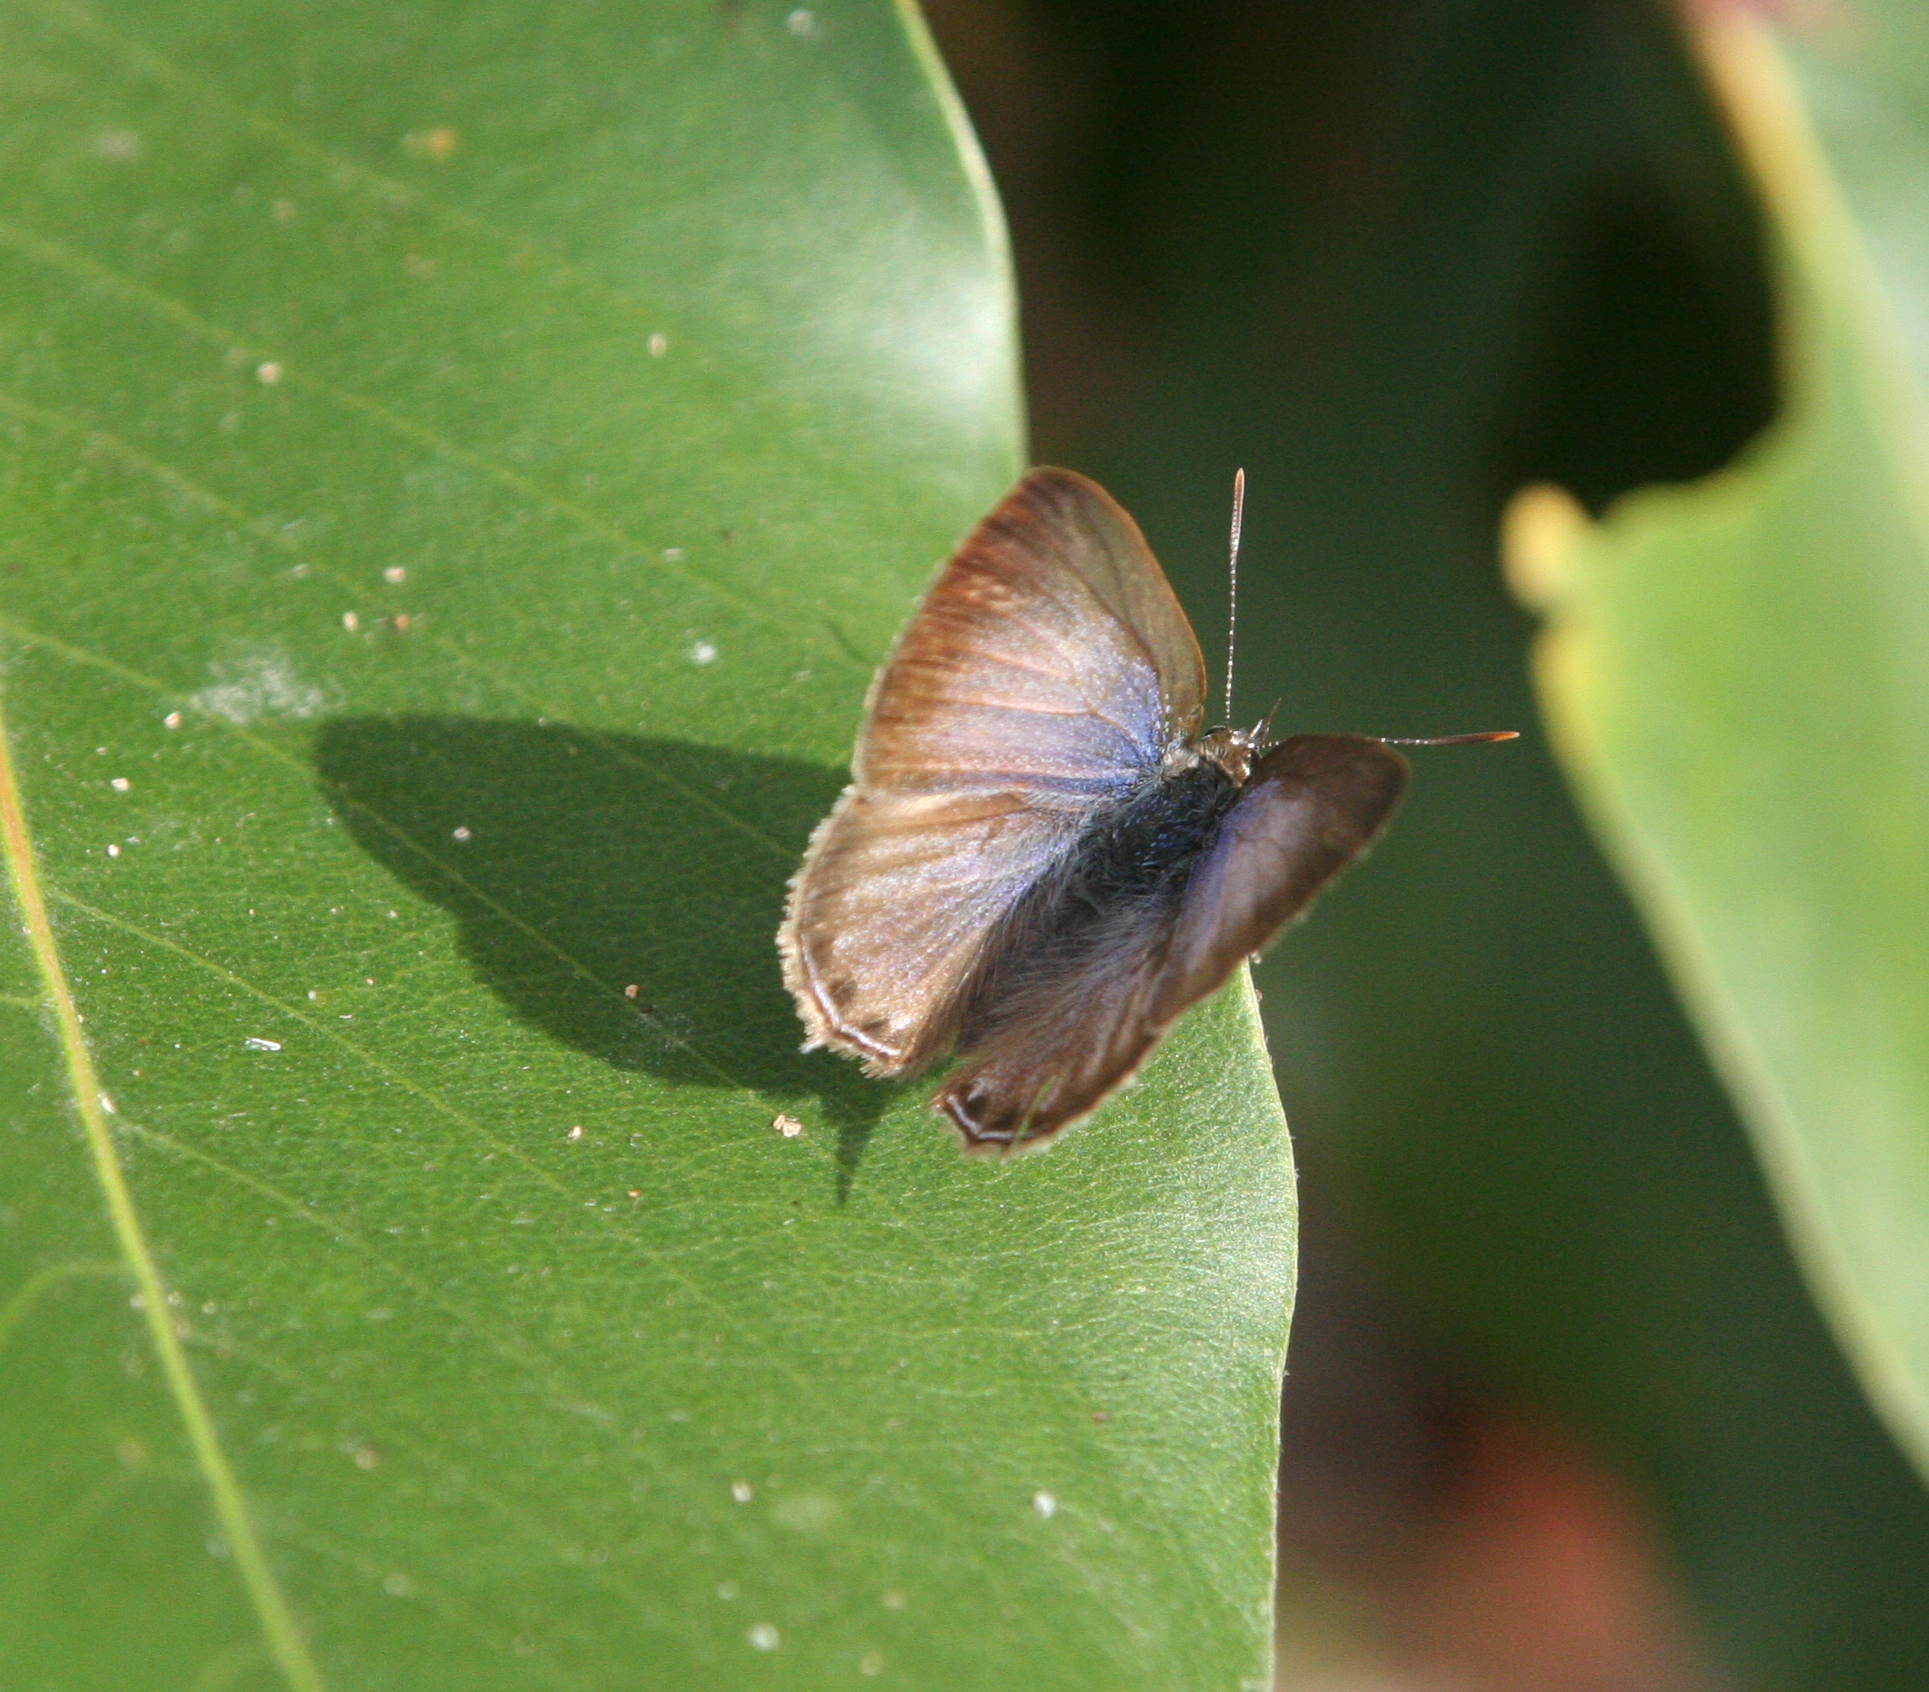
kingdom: Animalia
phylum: Arthropoda
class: Insecta
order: Lepidoptera
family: Lycaenidae
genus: Anthene
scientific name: Anthene emolus
